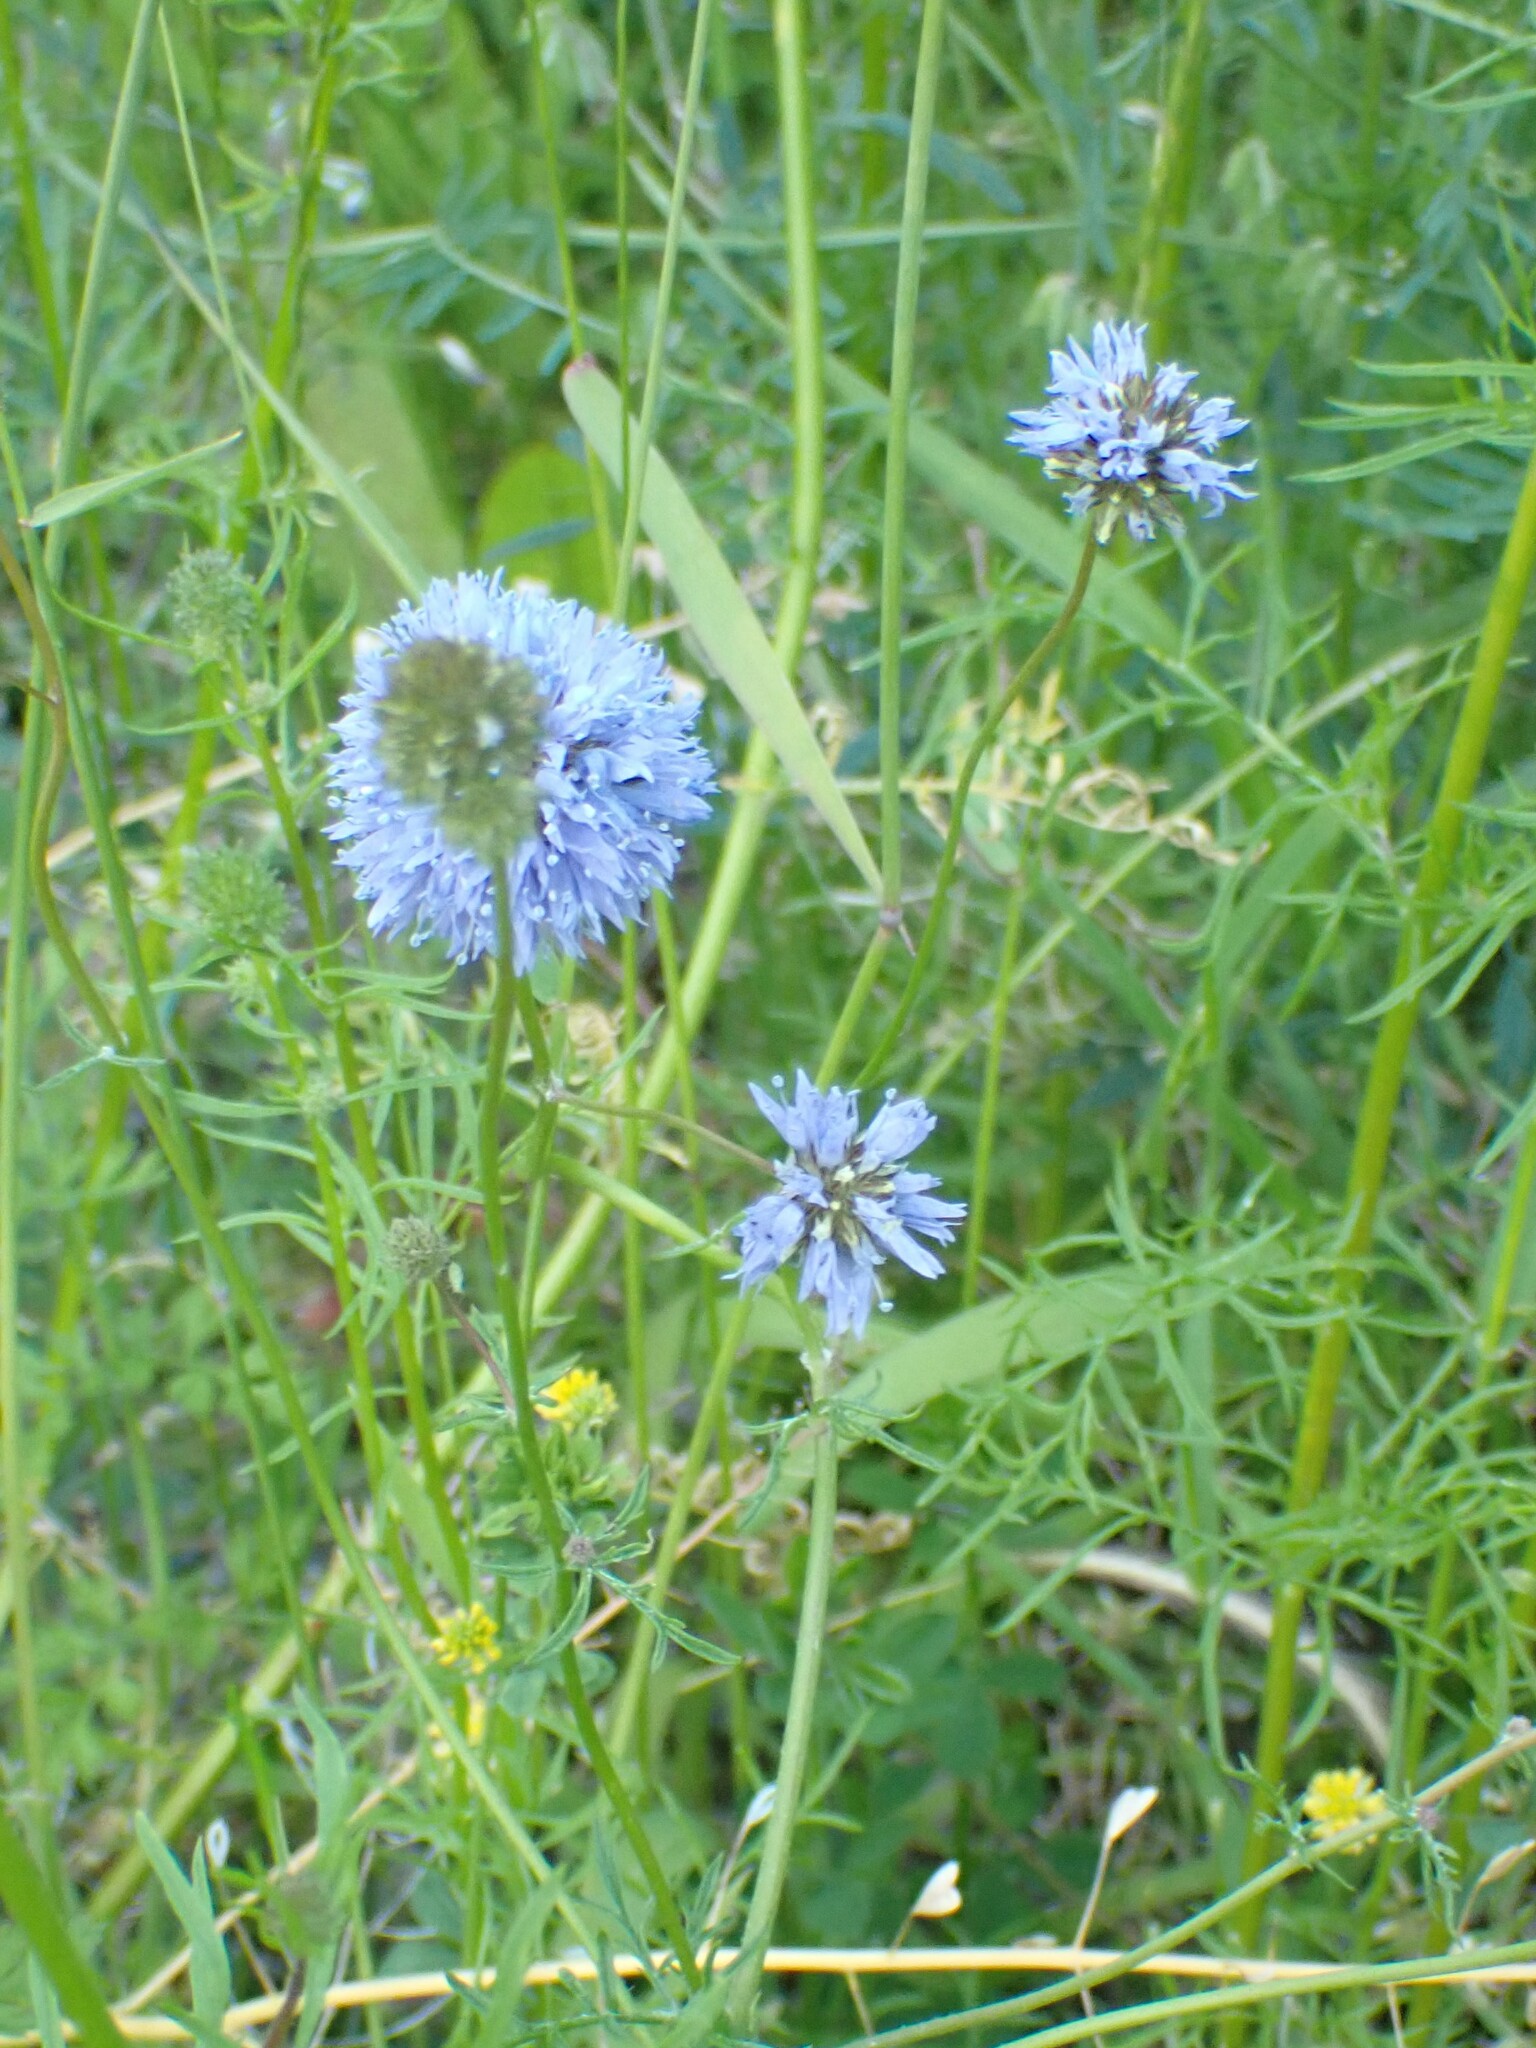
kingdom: Plantae
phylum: Tracheophyta
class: Magnoliopsida
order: Ericales
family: Polemoniaceae
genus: Gilia
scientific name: Gilia capitata
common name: Bluehead gilia
